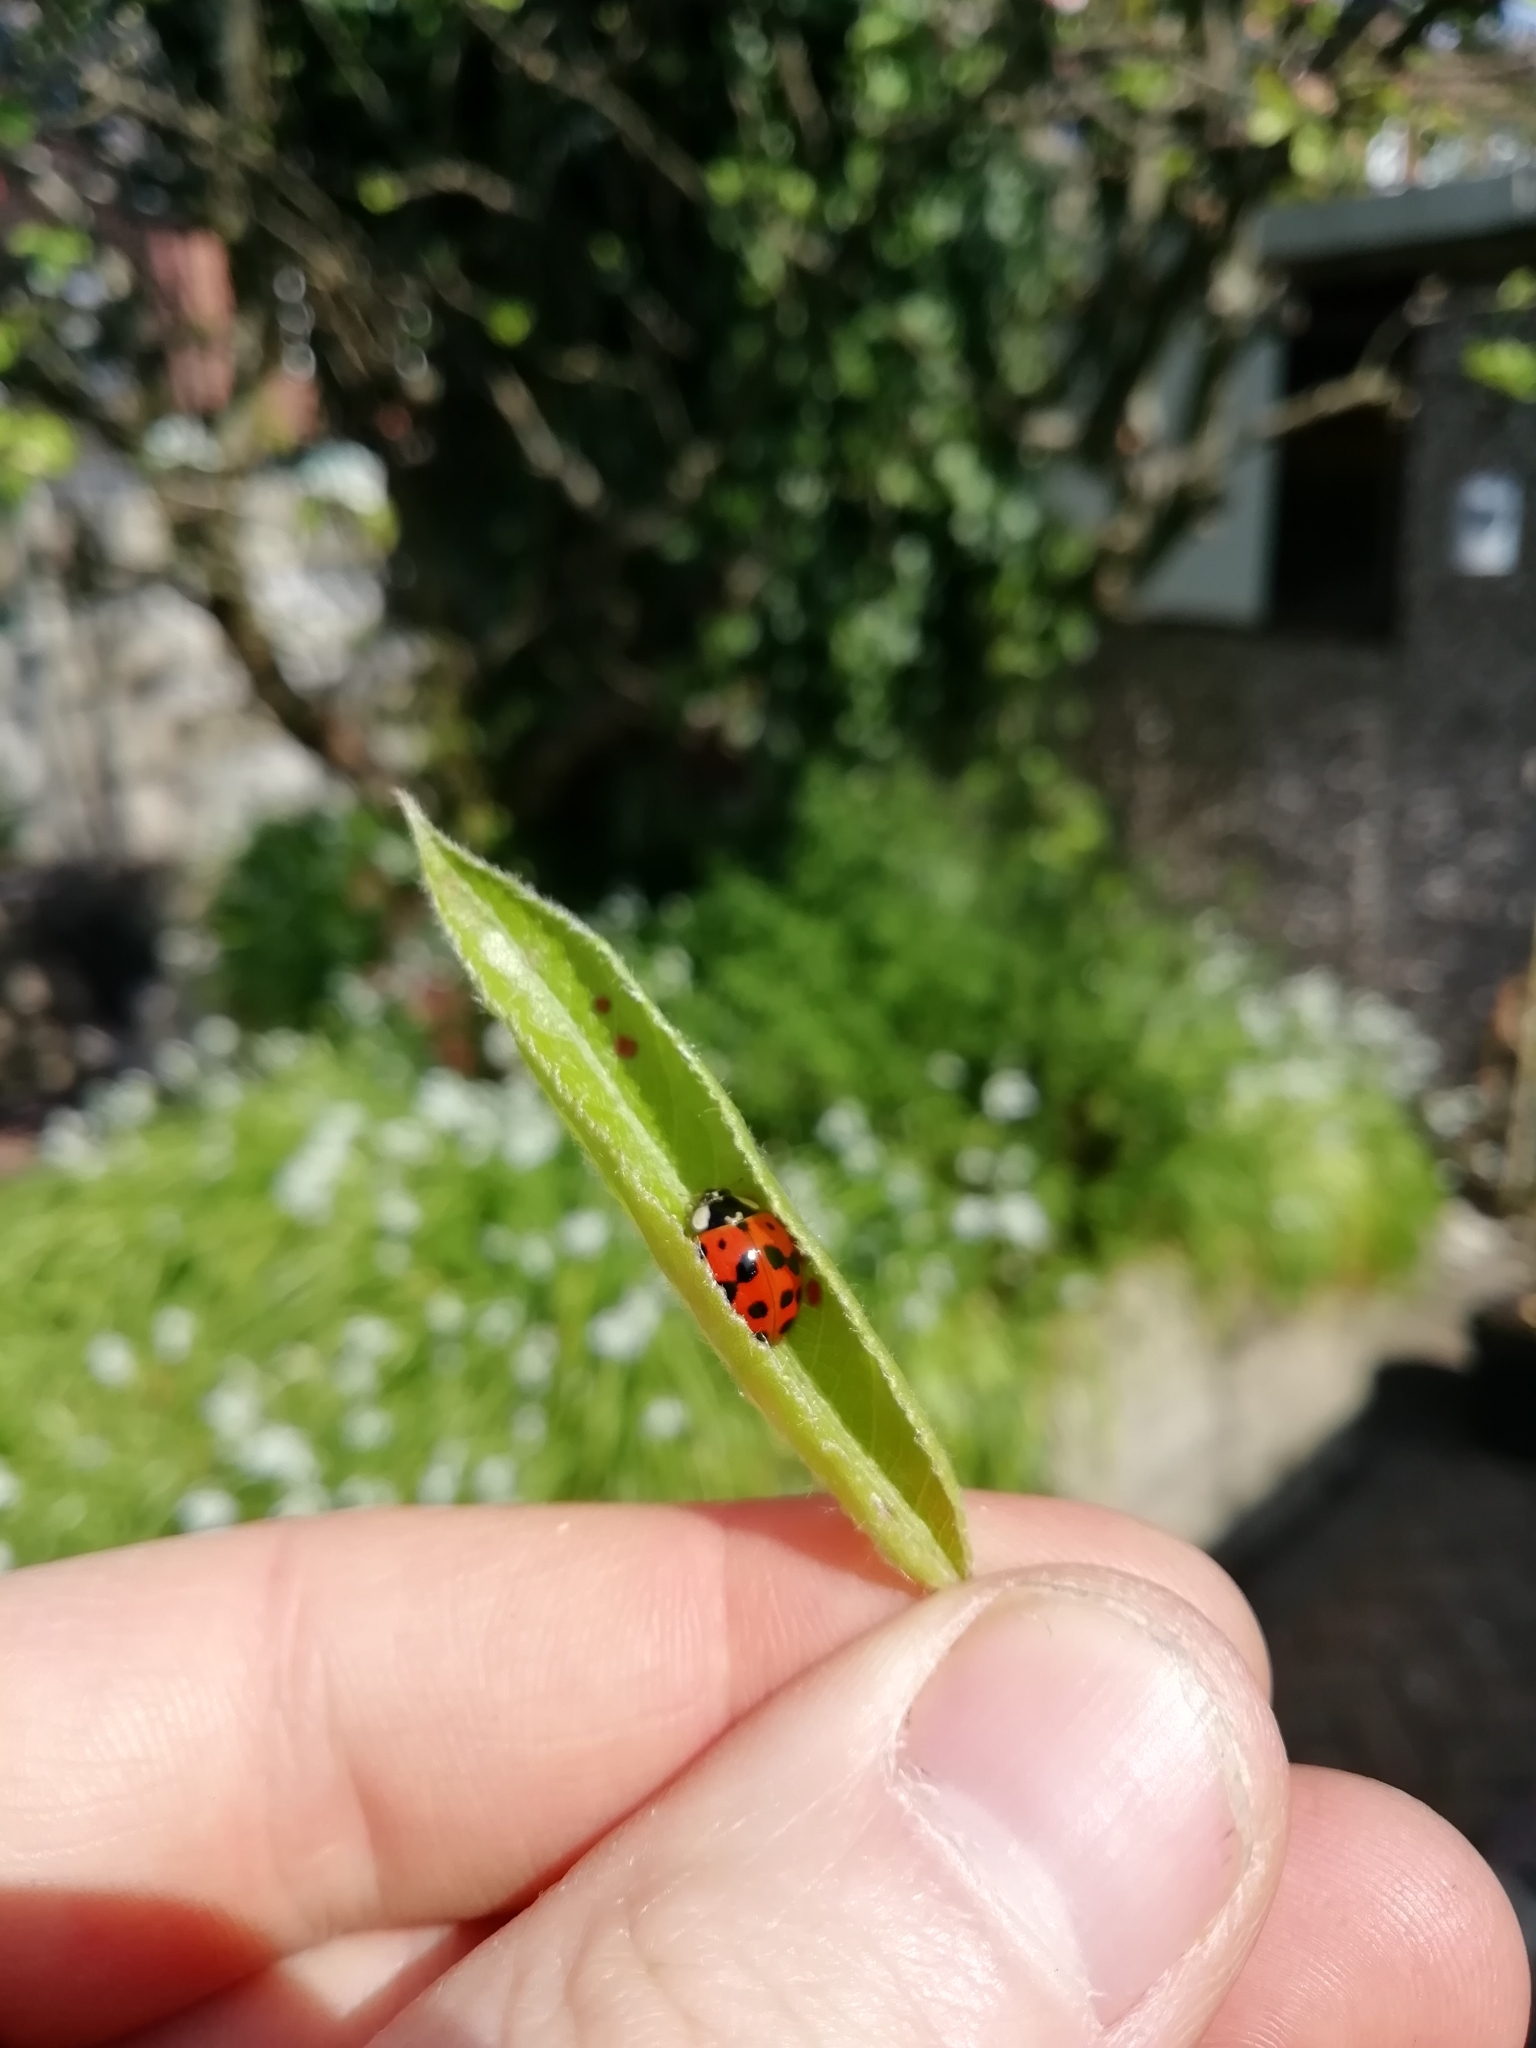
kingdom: Animalia
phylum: Arthropoda
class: Insecta
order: Coleoptera
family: Coccinellidae
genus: Harmonia
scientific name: Harmonia axyridis
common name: Harlequin ladybird
